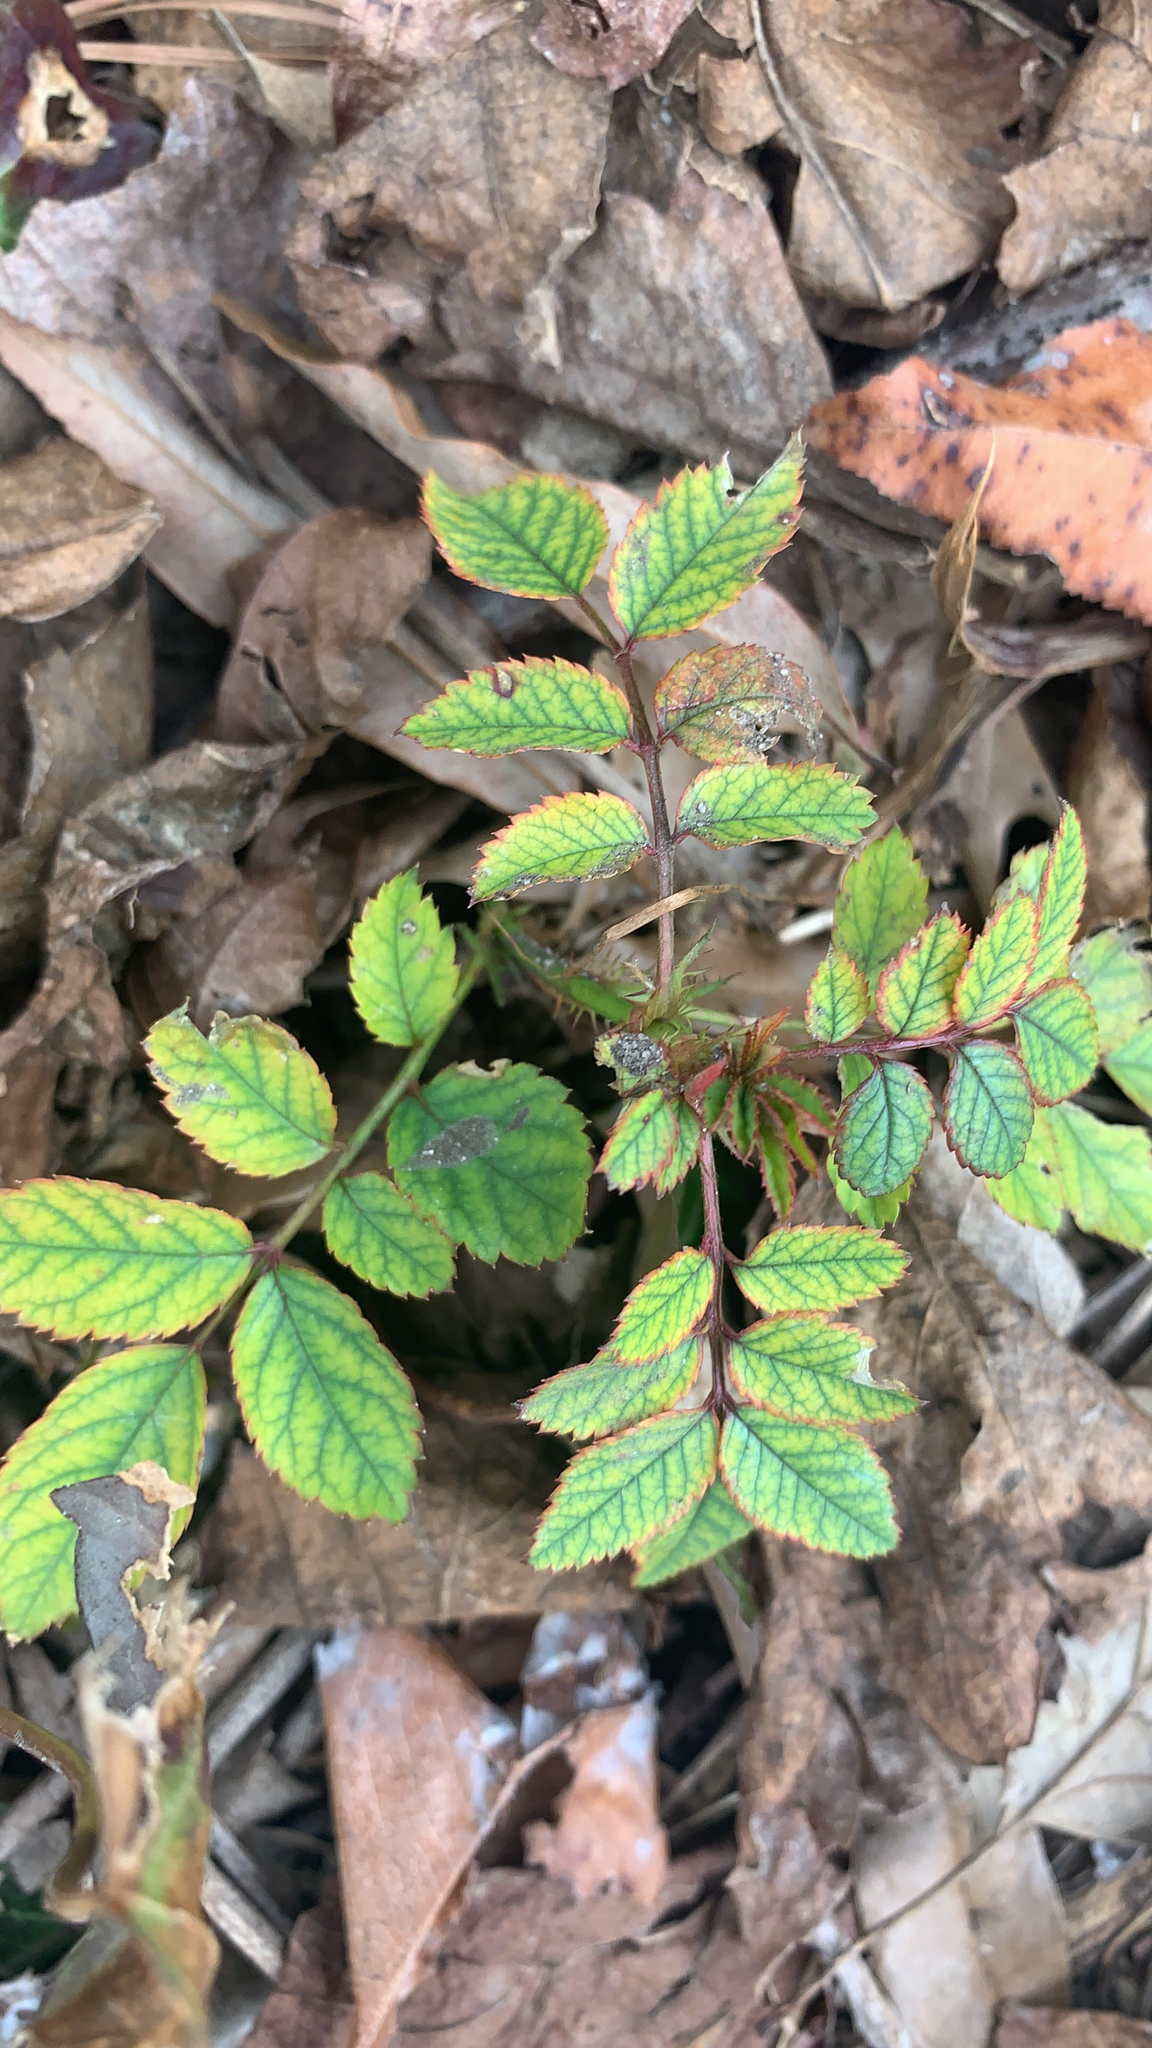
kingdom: Plantae
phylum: Tracheophyta
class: Magnoliopsida
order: Rosales
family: Rosaceae
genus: Rosa
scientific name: Rosa multiflora
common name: Multiflora rose
